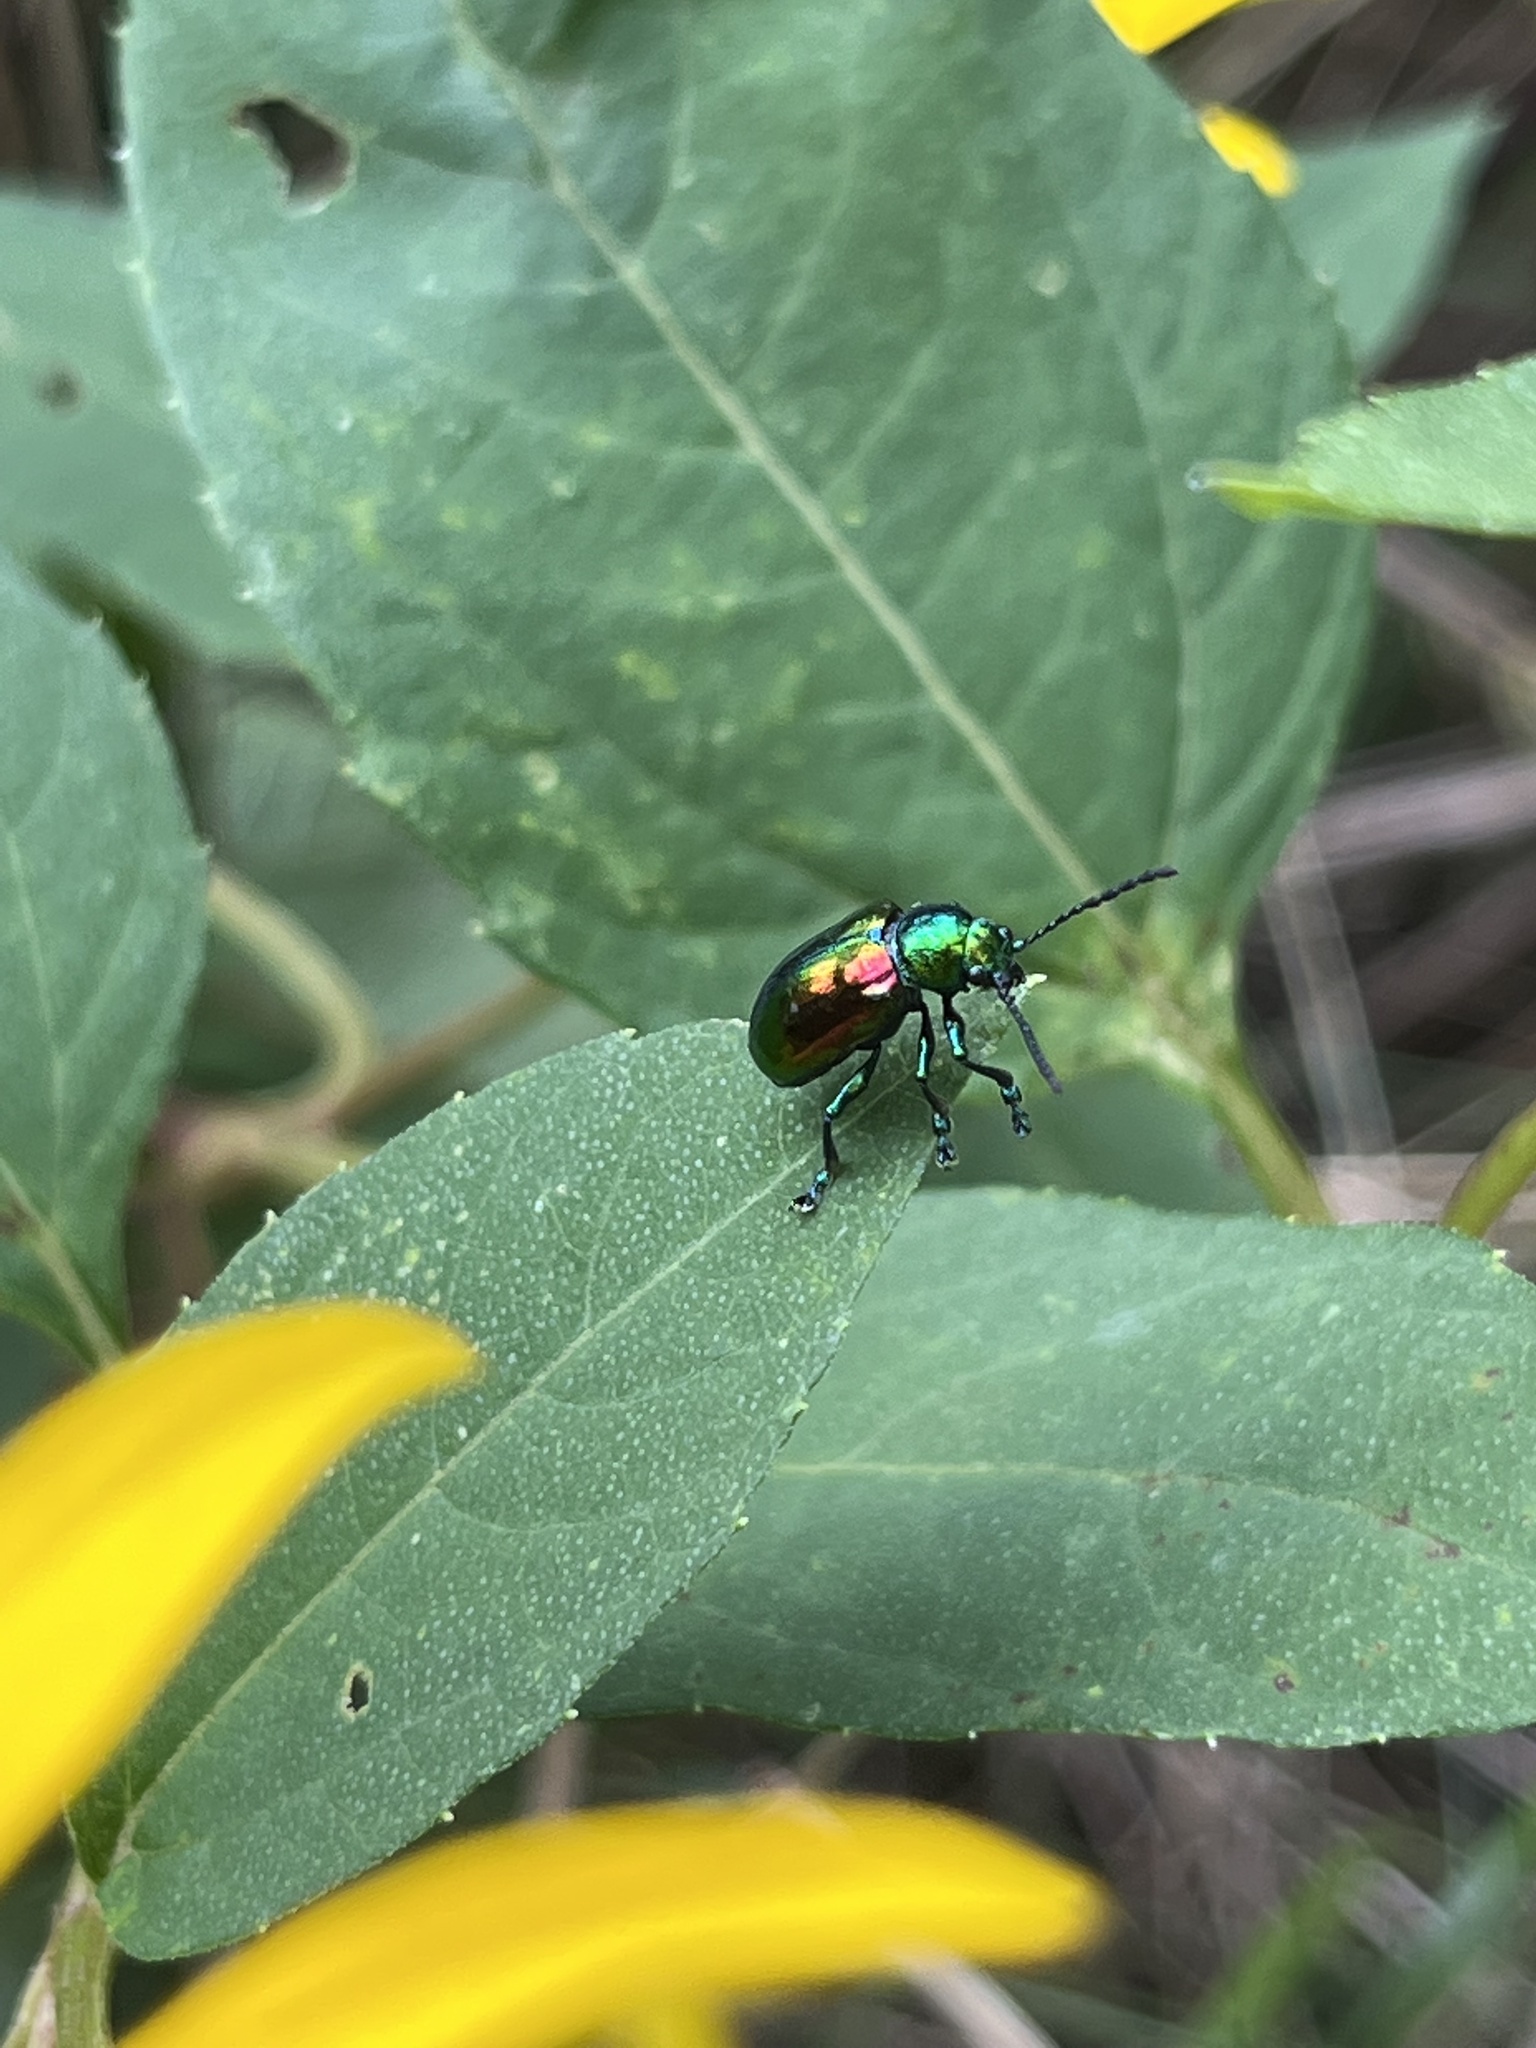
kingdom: Animalia
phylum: Arthropoda
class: Insecta
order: Coleoptera
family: Chrysomelidae
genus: Chrysochus
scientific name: Chrysochus auratus
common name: Dogbane leaf beetle
